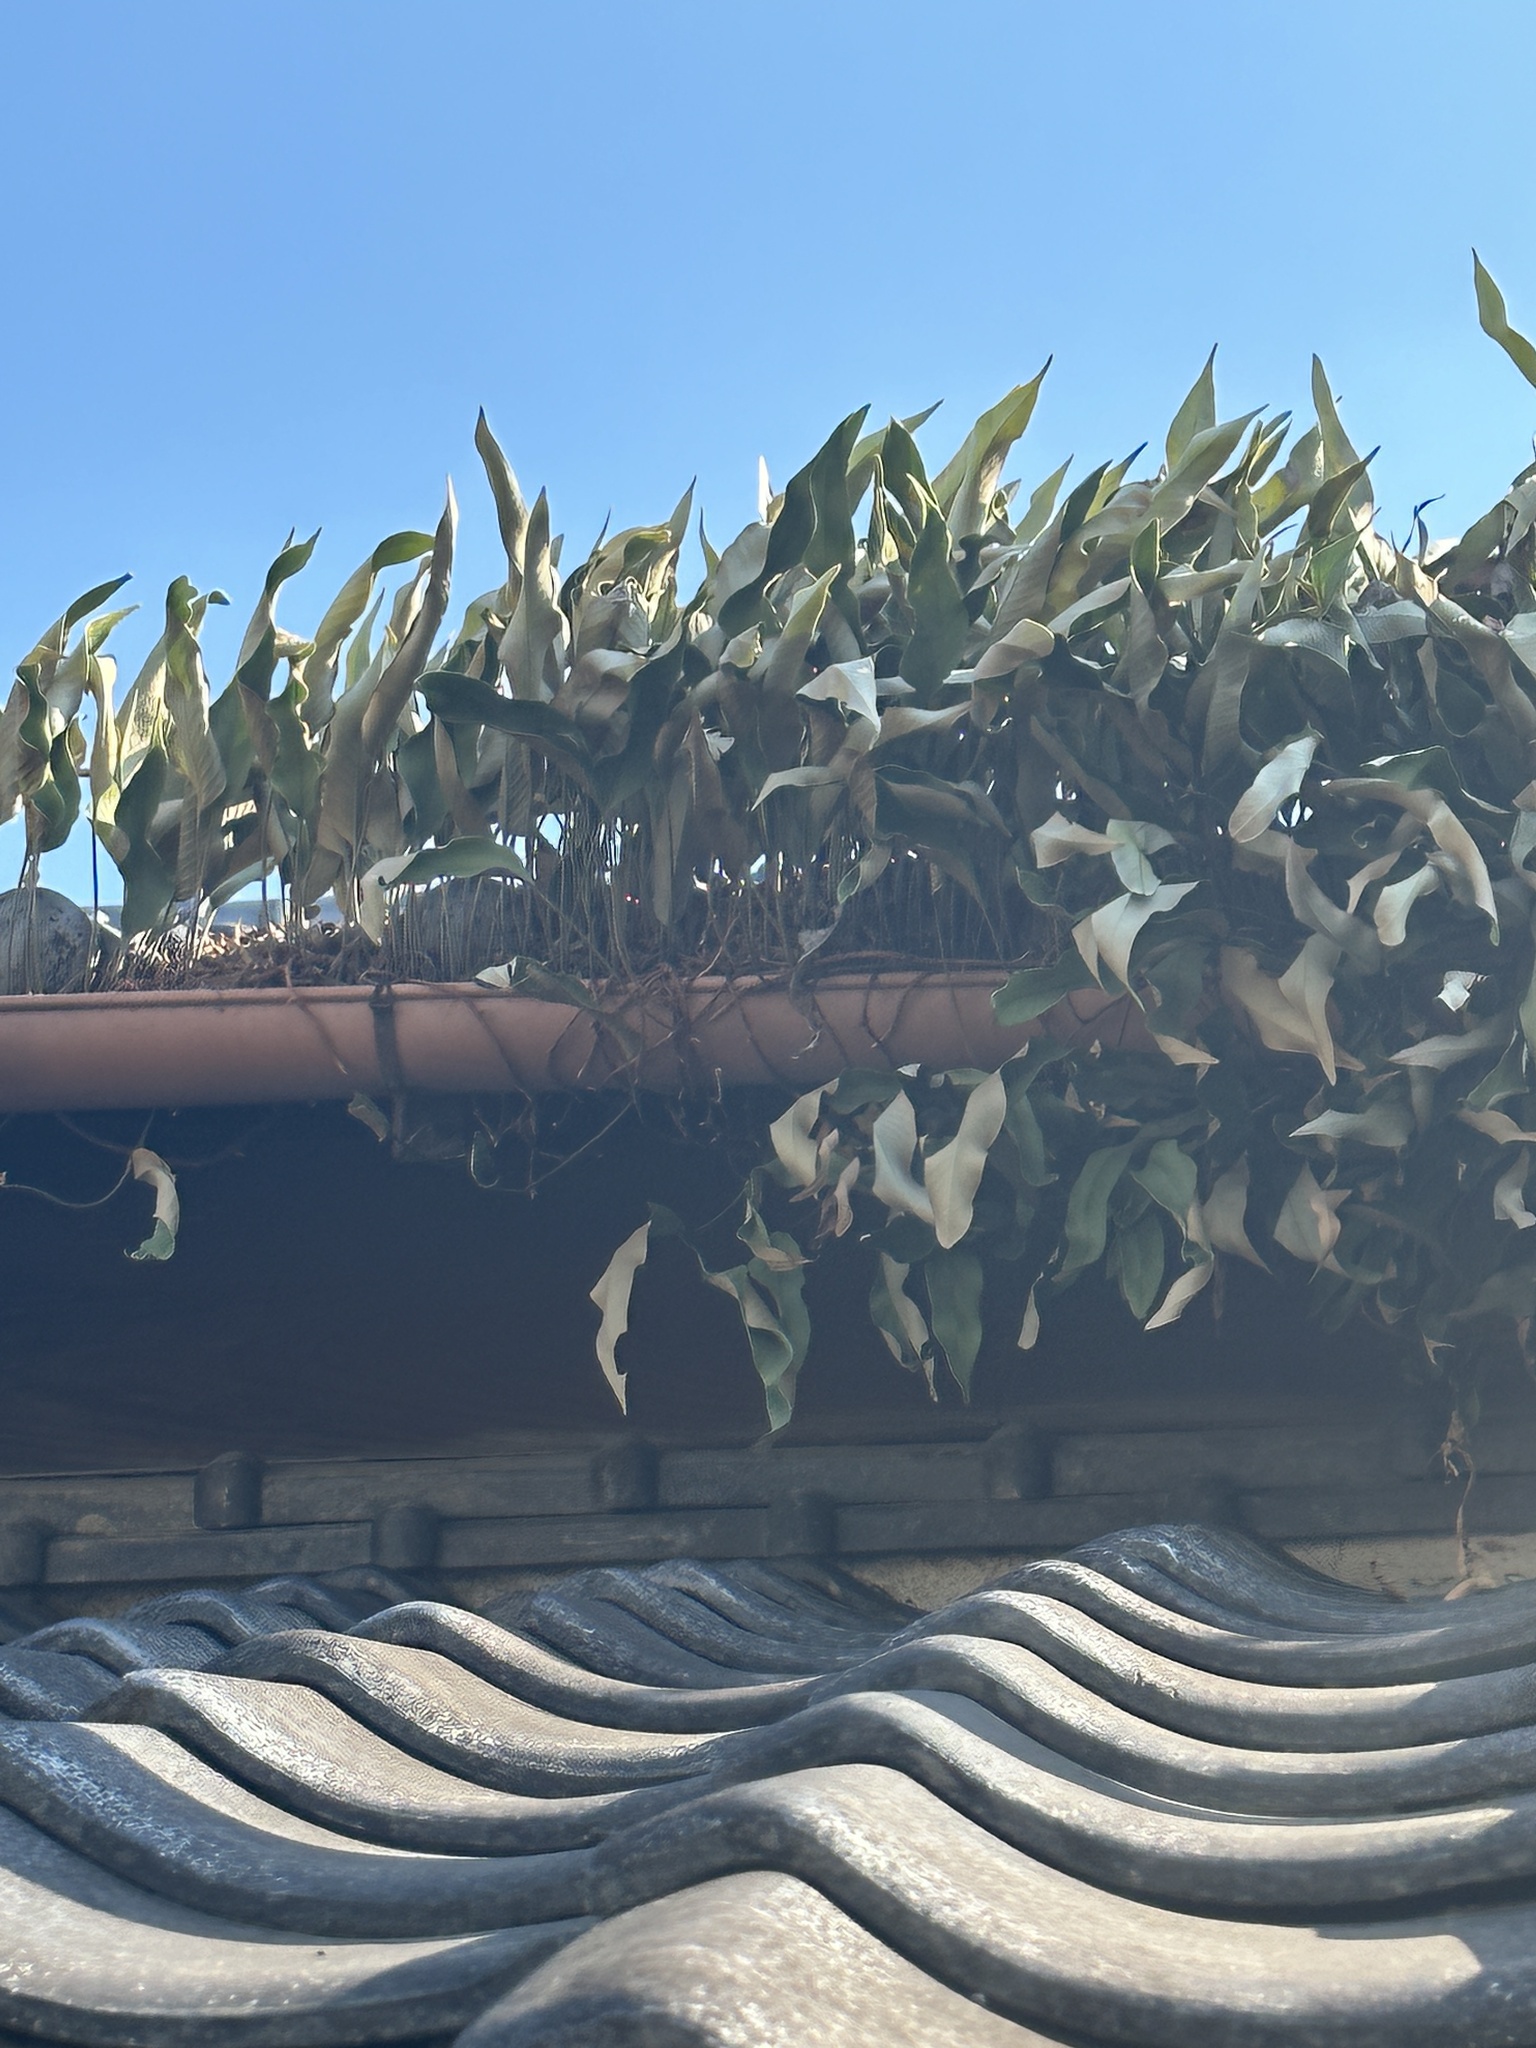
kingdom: Plantae
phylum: Tracheophyta
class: Polypodiopsida
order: Polypodiales
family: Polypodiaceae
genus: Pyrrosia
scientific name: Pyrrosia lingua
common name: Felt fern
